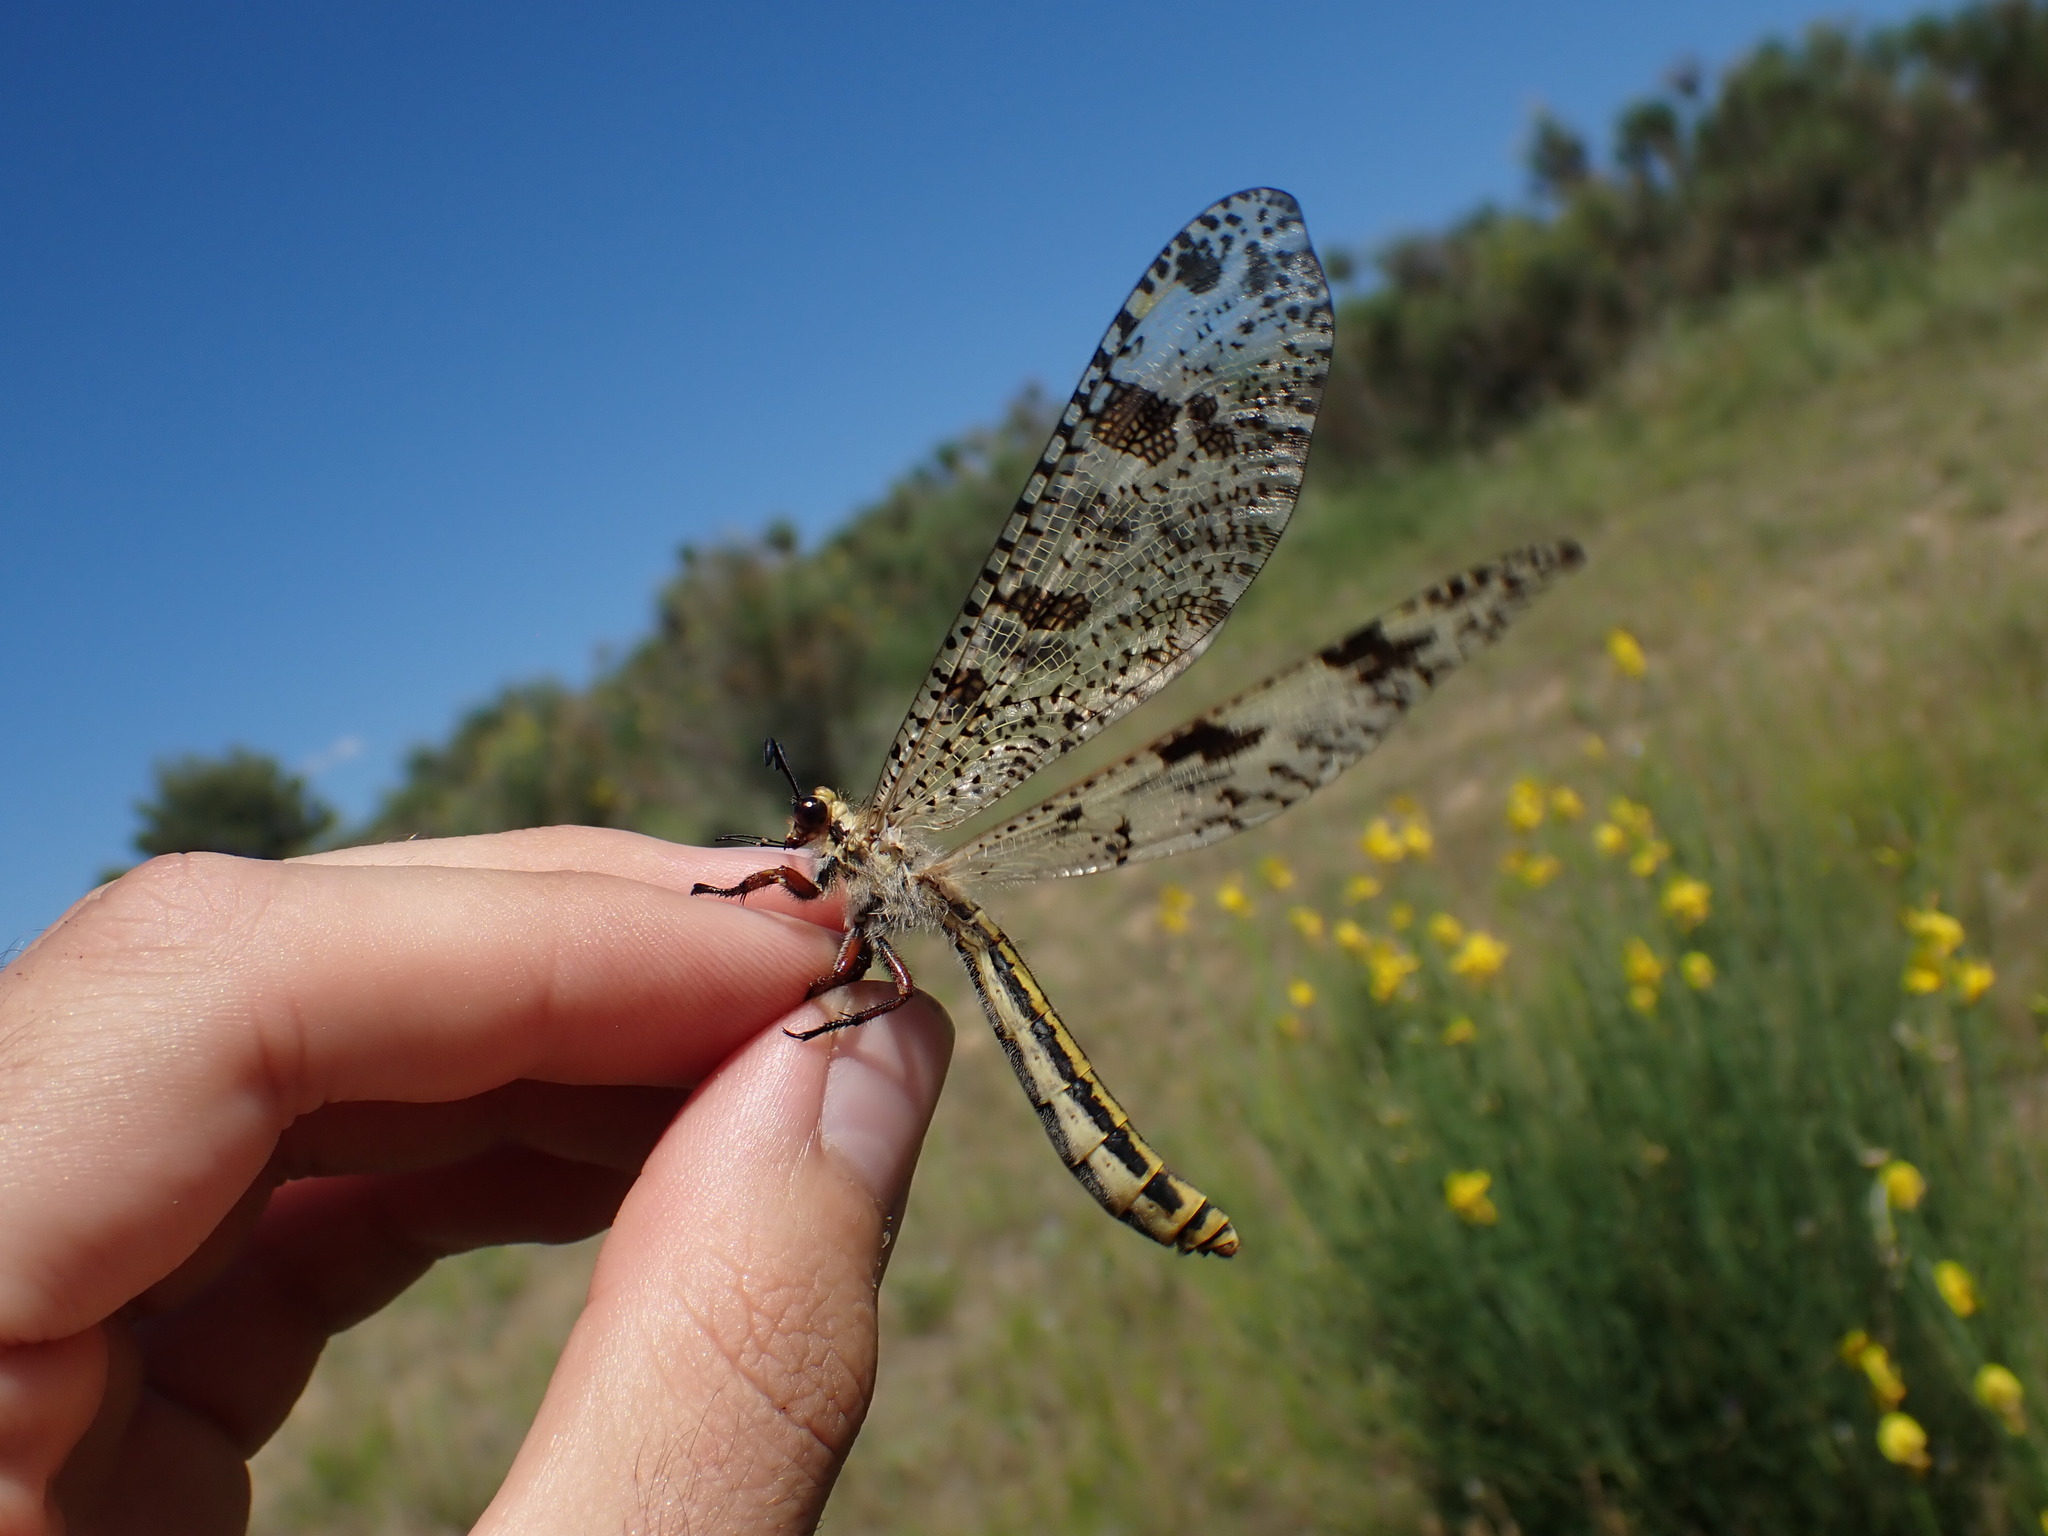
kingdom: Animalia
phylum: Arthropoda
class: Insecta
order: Neuroptera
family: Myrmeleontidae
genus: Palpares
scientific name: Palpares libelluloides
